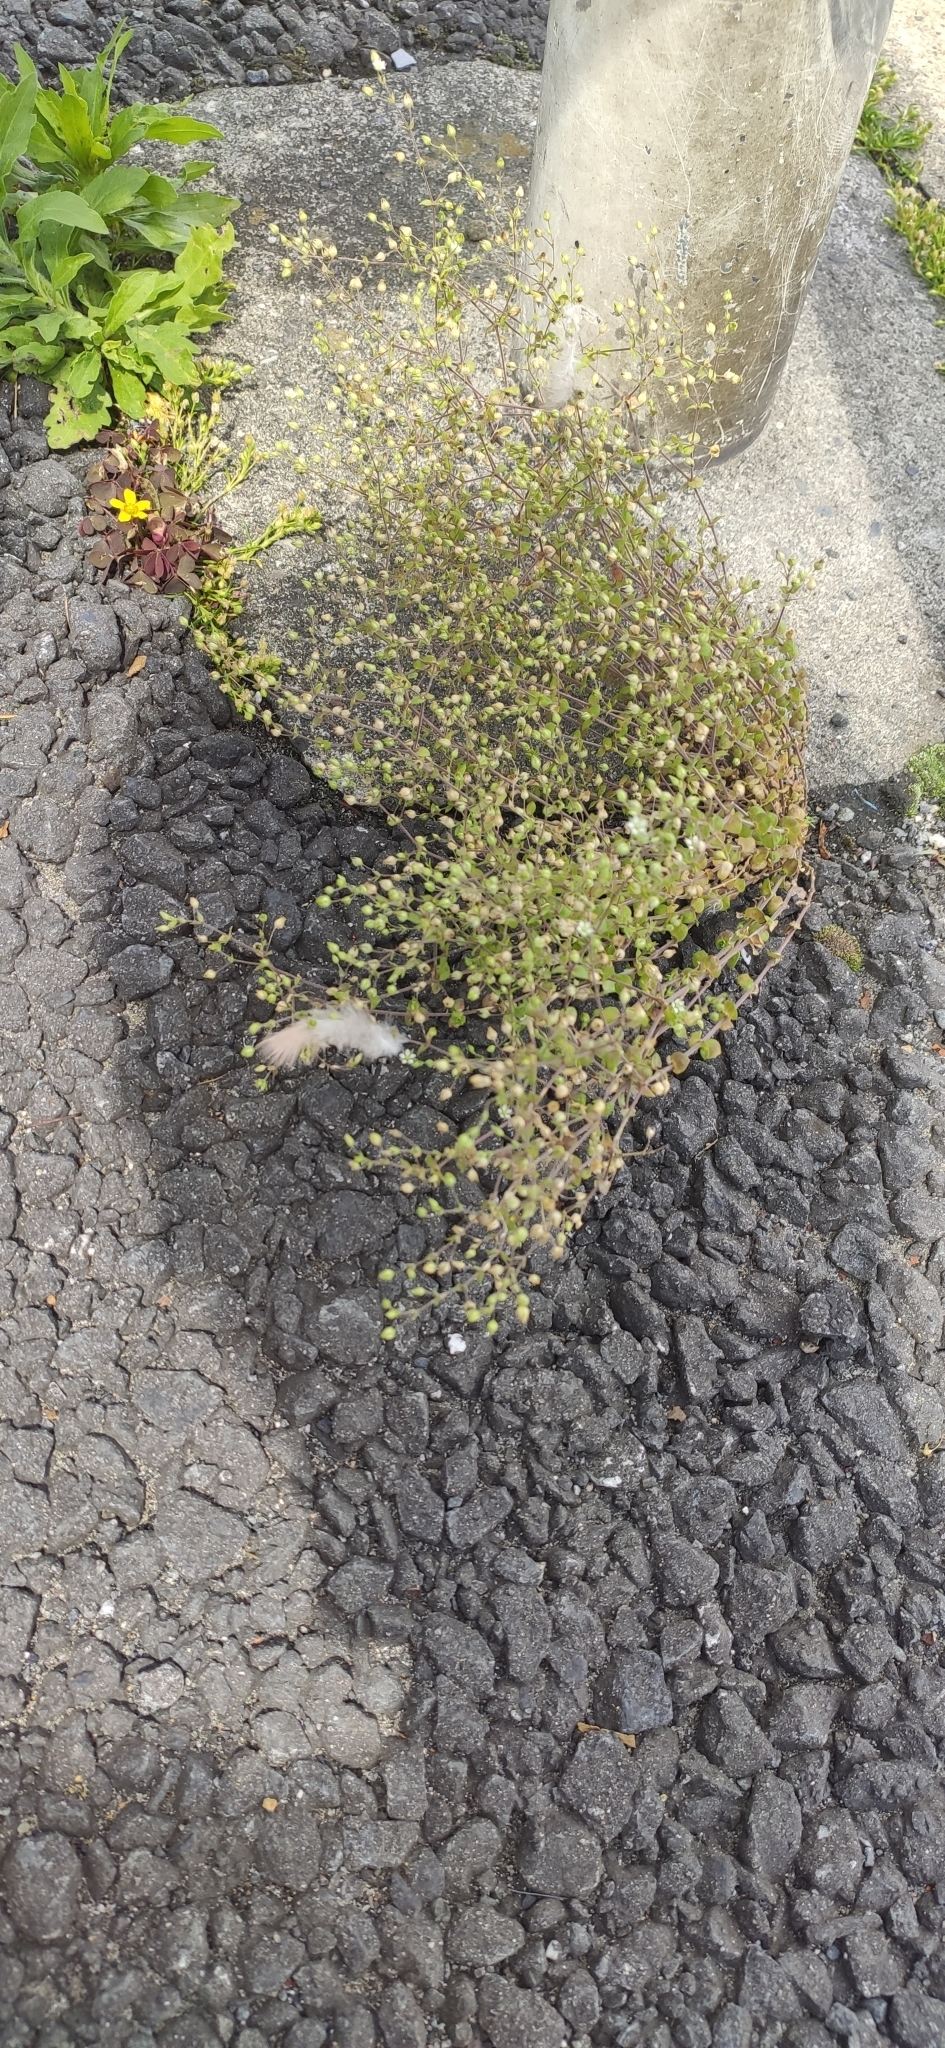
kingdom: Plantae
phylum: Tracheophyta
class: Magnoliopsida
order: Caryophyllales
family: Caryophyllaceae
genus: Arenaria
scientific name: Arenaria serpyllifolia
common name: Thyme-leaved sandwort
